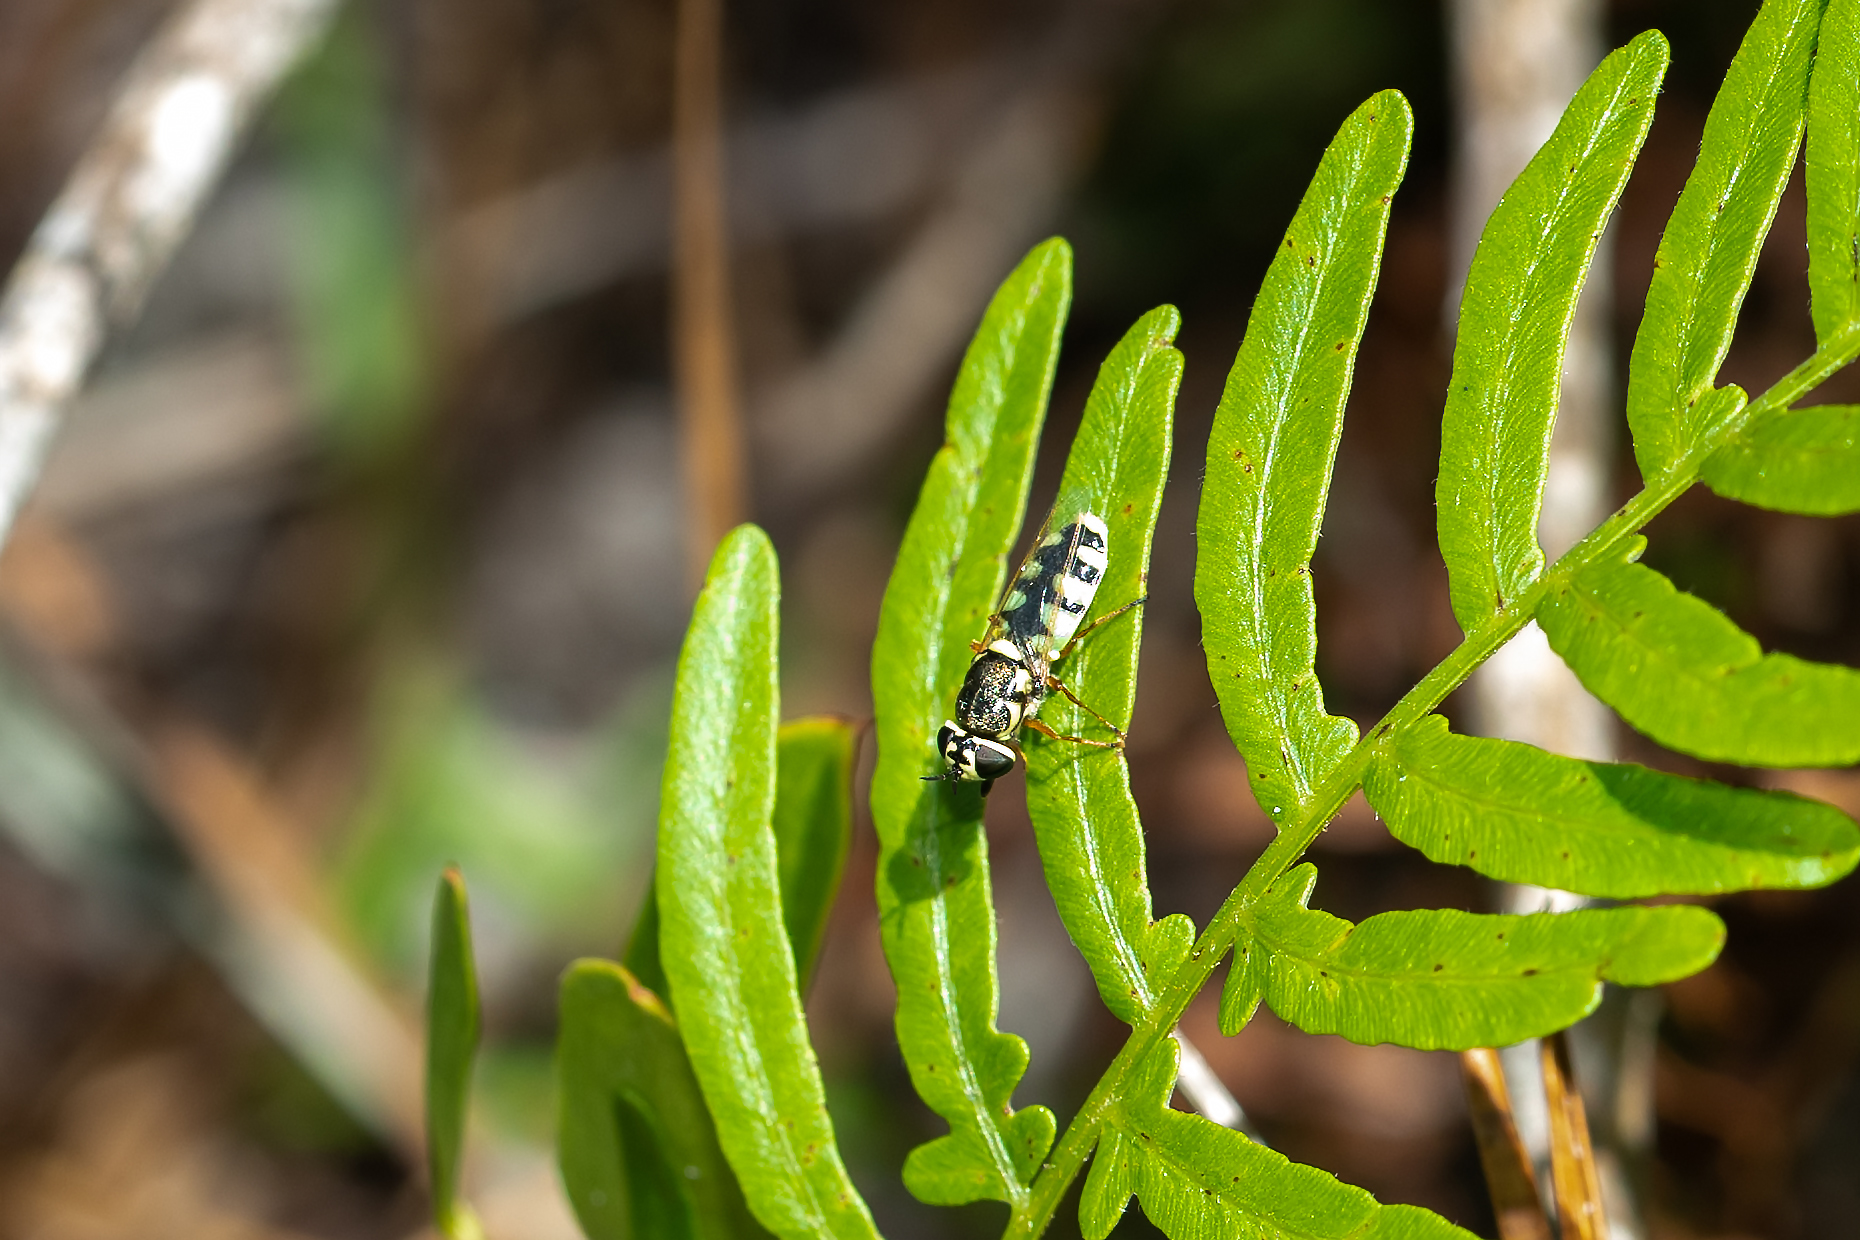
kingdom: Animalia
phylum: Arthropoda
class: Insecta
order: Diptera
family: Stratiomyidae
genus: Odontomyia
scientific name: Odontomyia rufipes
